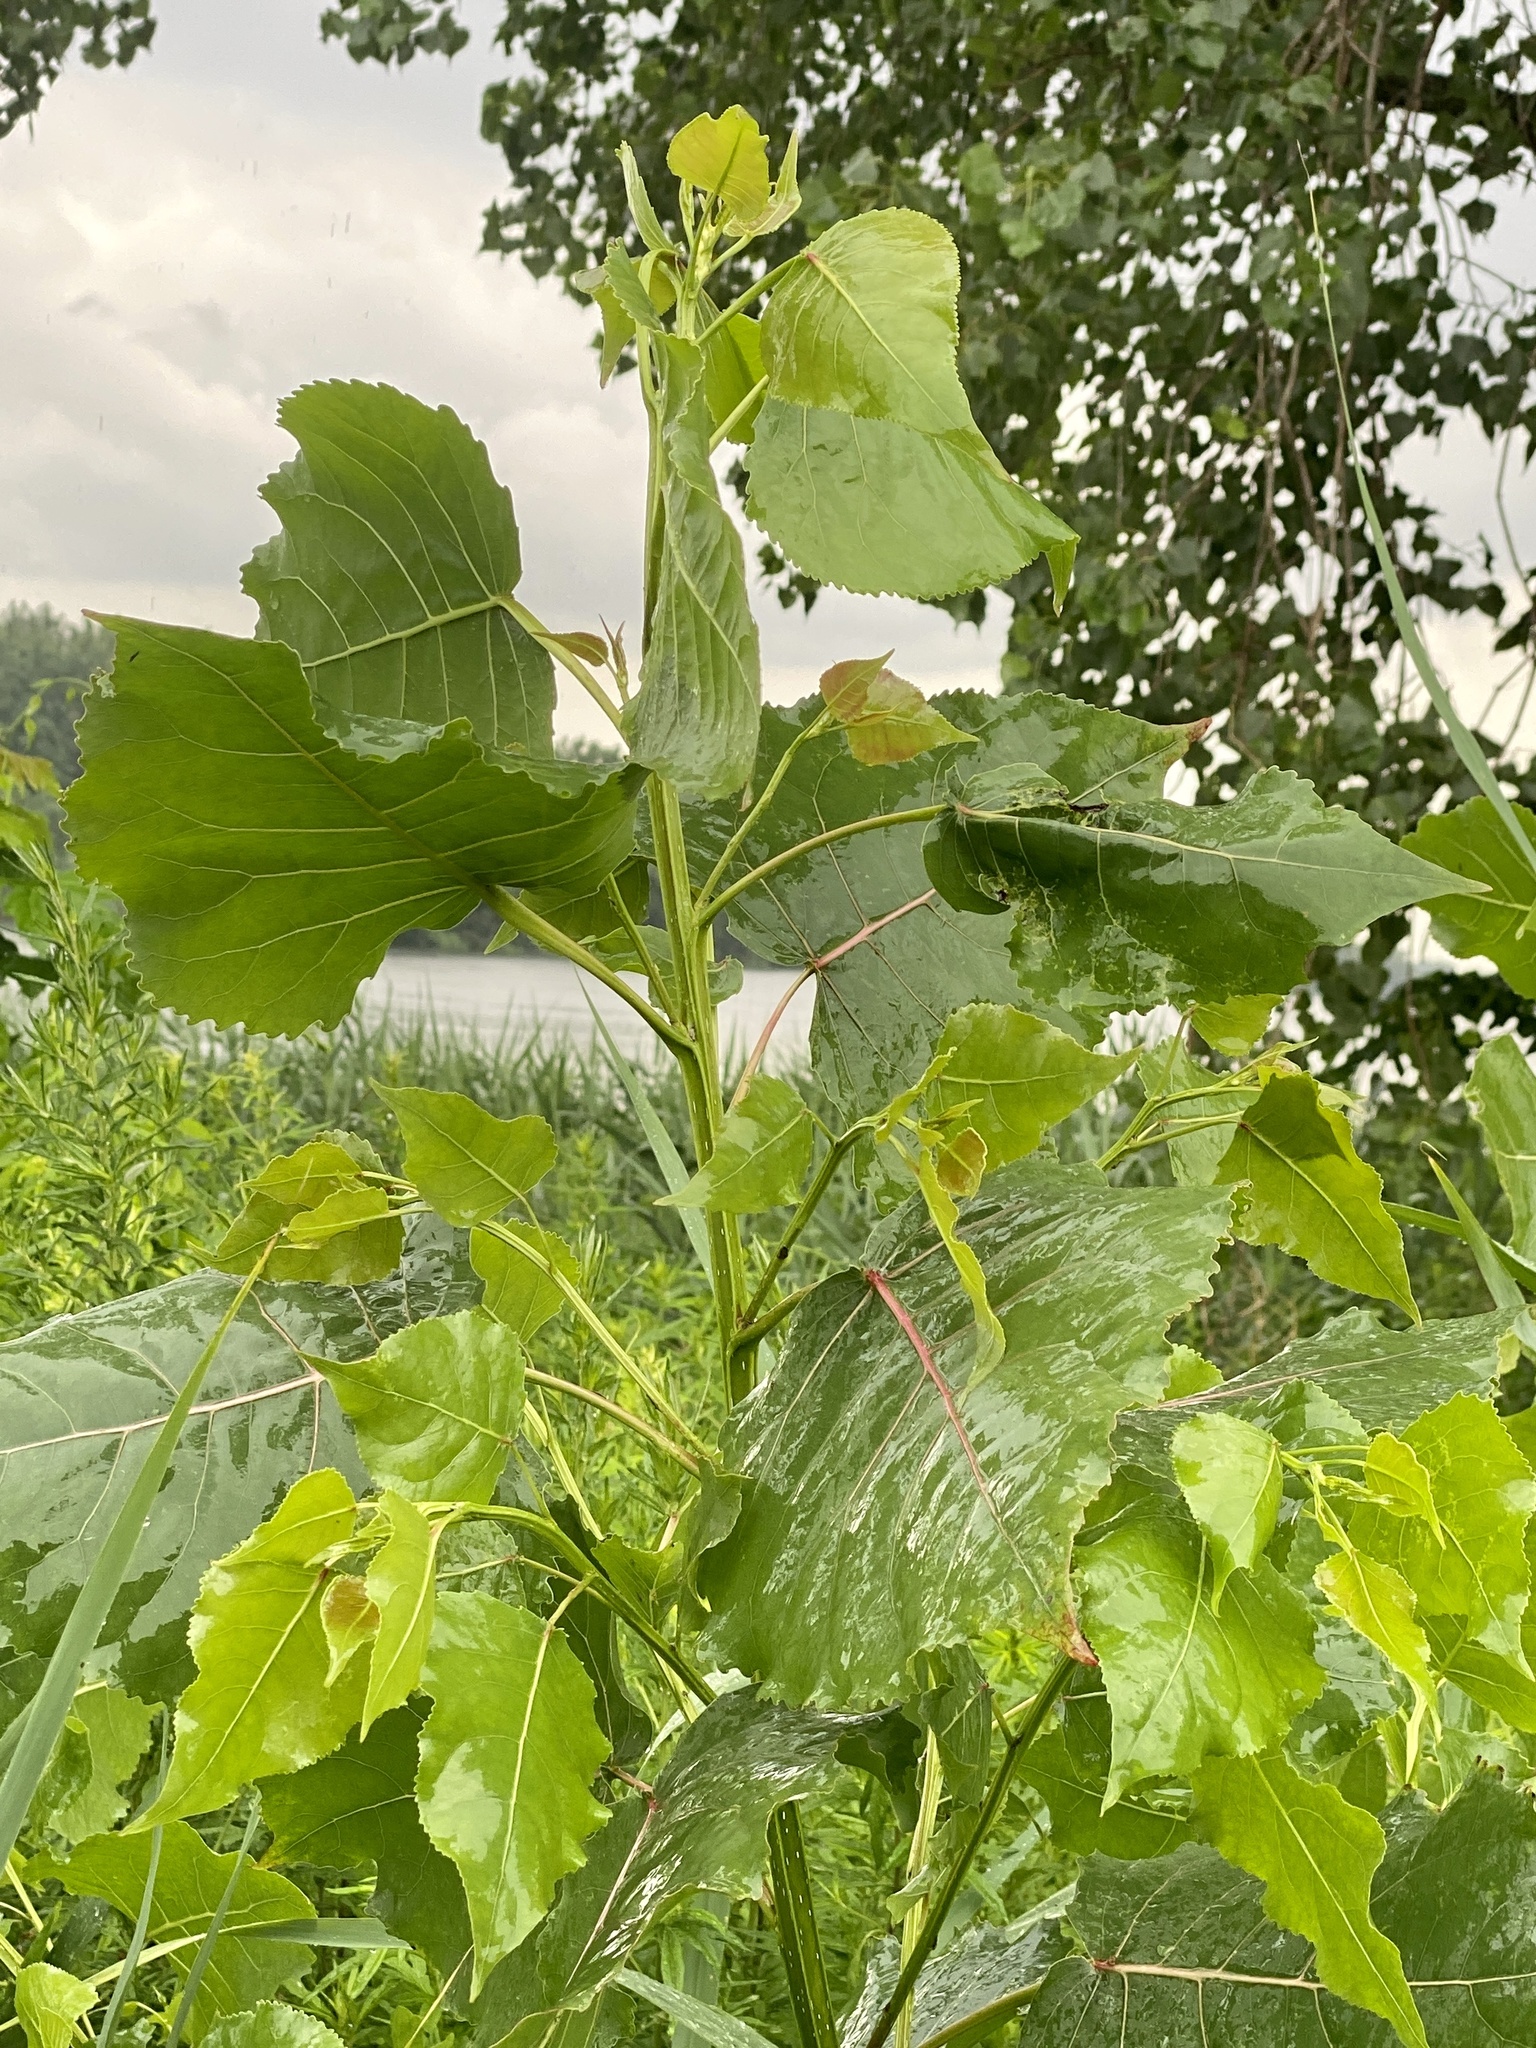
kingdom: Plantae
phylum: Tracheophyta
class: Magnoliopsida
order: Malpighiales
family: Salicaceae
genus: Populus
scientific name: Populus deltoides
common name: Eastern cottonwood
